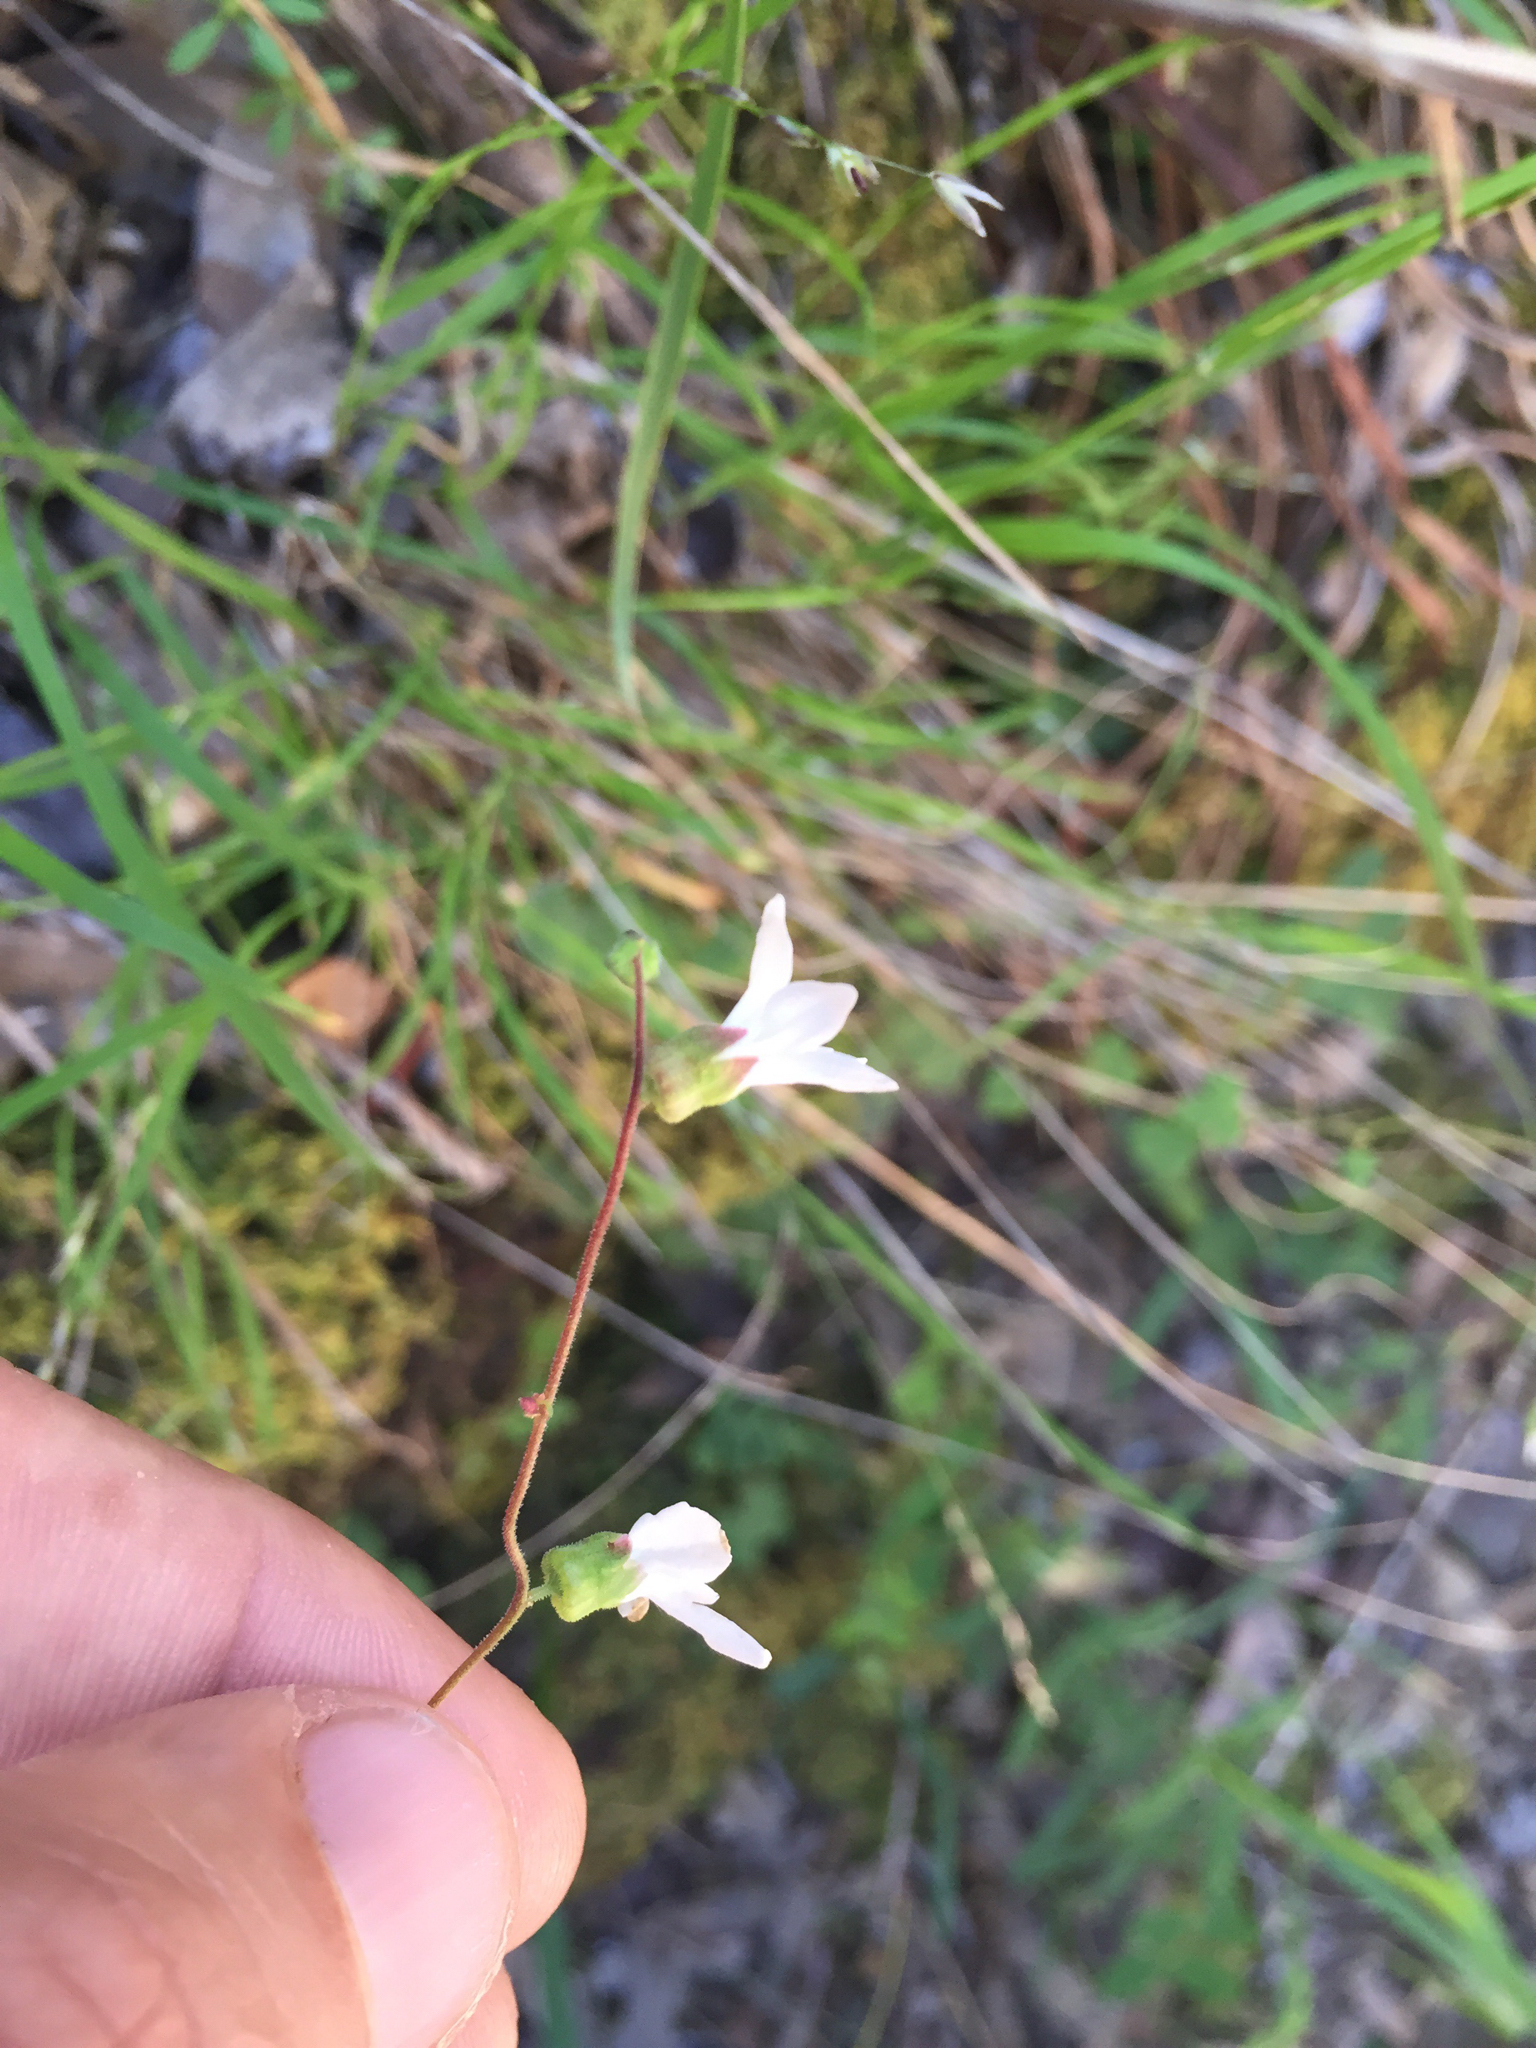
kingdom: Plantae
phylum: Tracheophyta
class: Magnoliopsida
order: Saxifragales
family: Saxifragaceae
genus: Lithophragma
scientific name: Lithophragma heterophyllum
